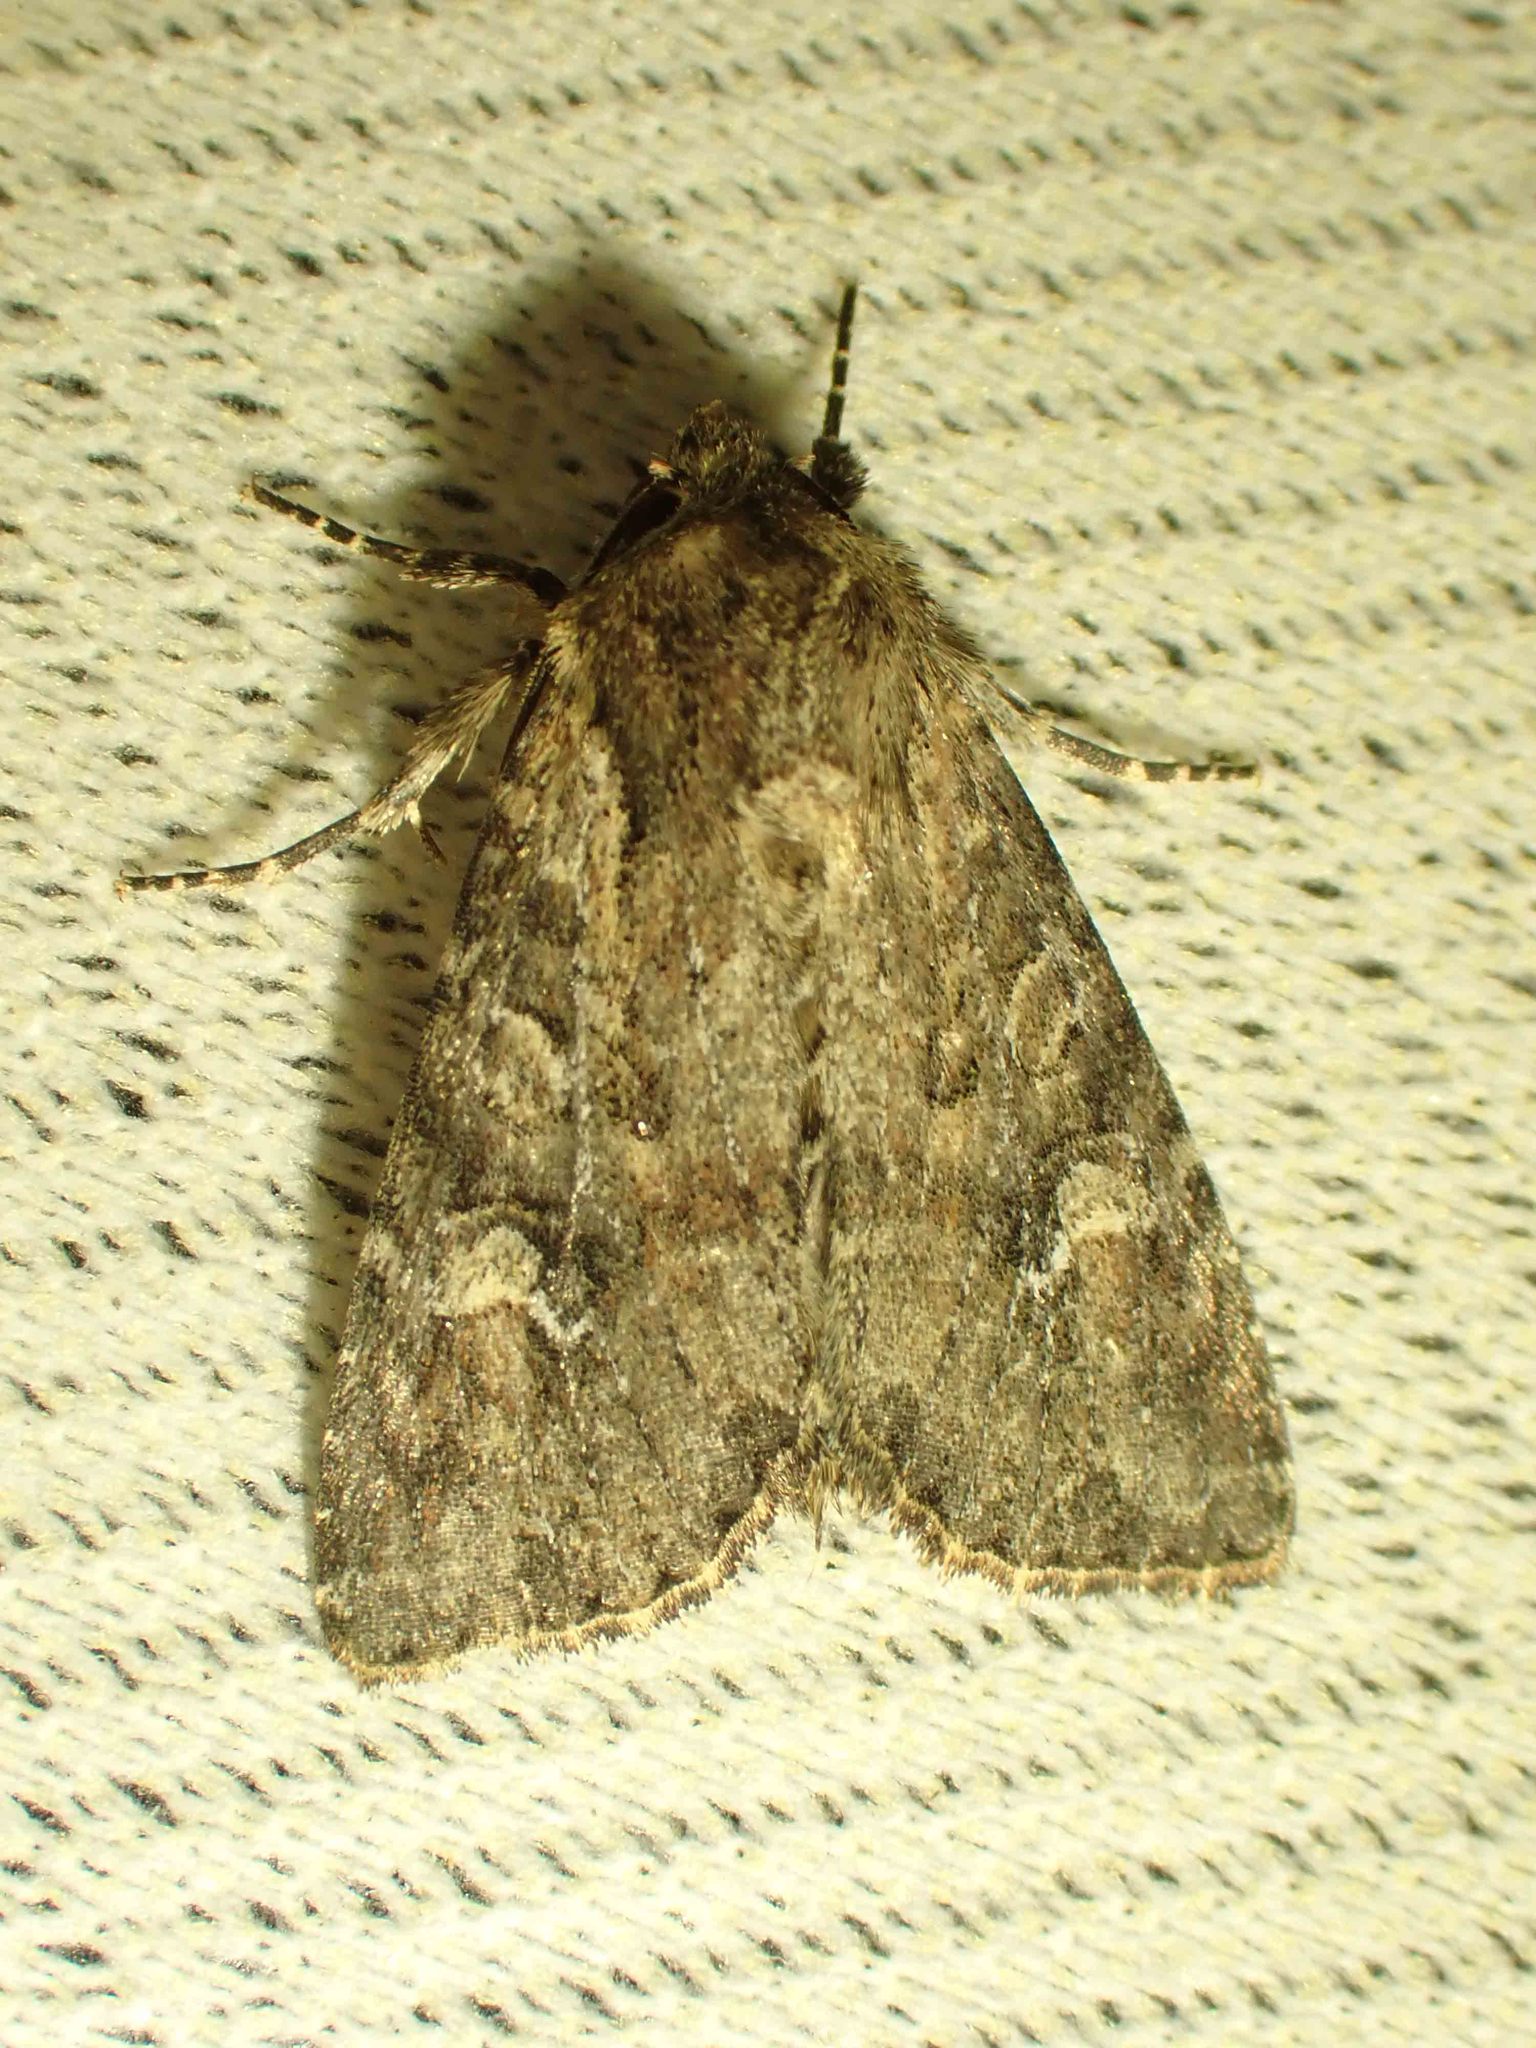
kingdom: Animalia
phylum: Arthropoda
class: Insecta
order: Lepidoptera
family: Noctuidae
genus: Apamea
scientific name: Apamea unanimis
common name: Small clouded brindle
